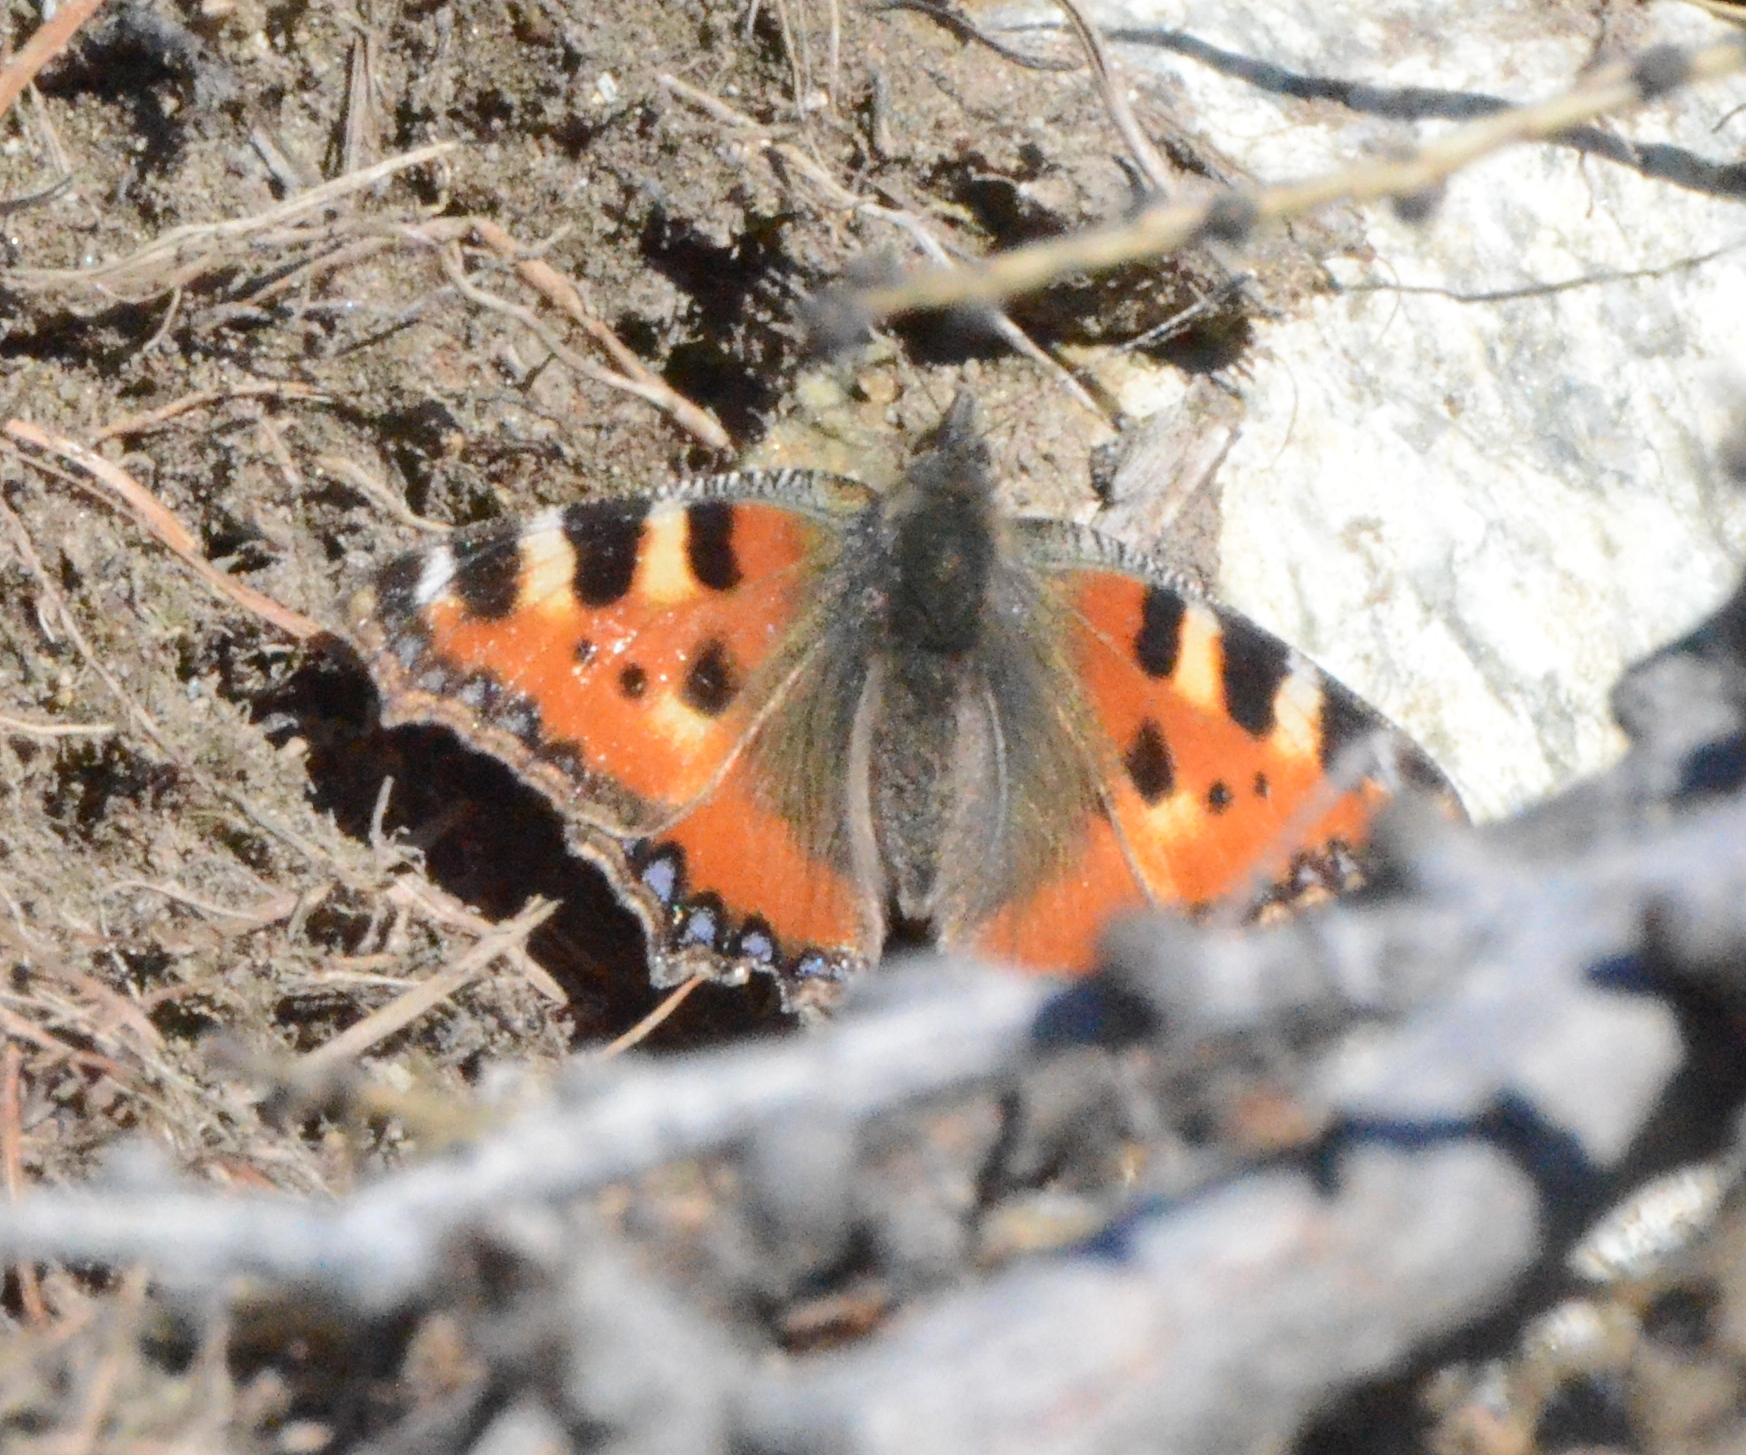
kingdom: Animalia
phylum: Arthropoda
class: Insecta
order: Lepidoptera
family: Nymphalidae
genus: Aglais
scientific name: Aglais urticae
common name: Small tortoiseshell
